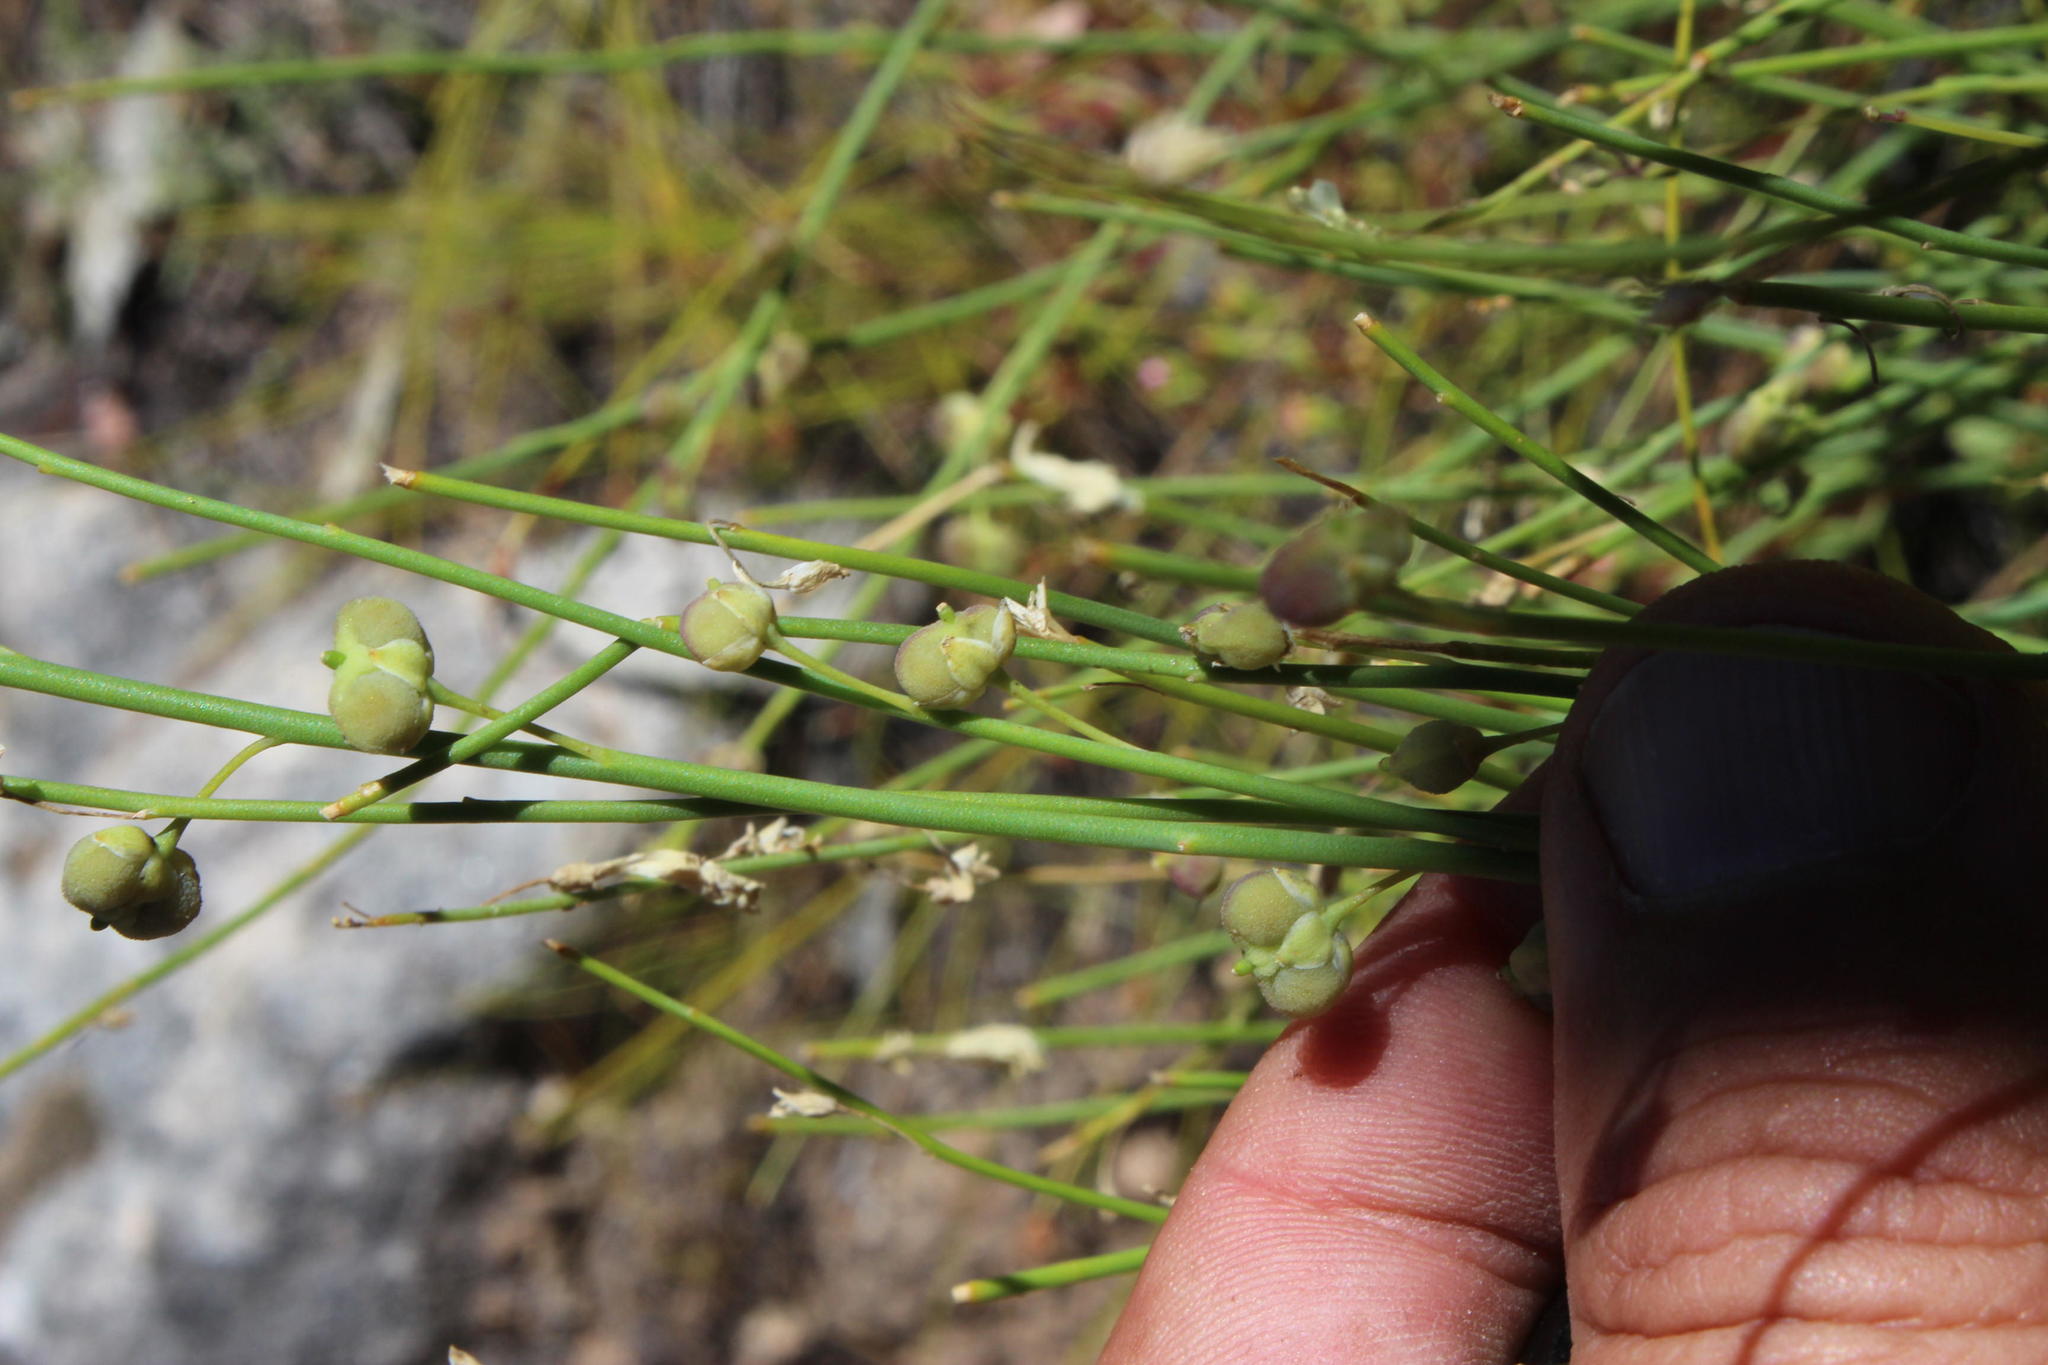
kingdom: Plantae
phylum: Tracheophyta
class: Magnoliopsida
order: Brassicales
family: Brassicaceae
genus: Heliophila
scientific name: Heliophila juncea
